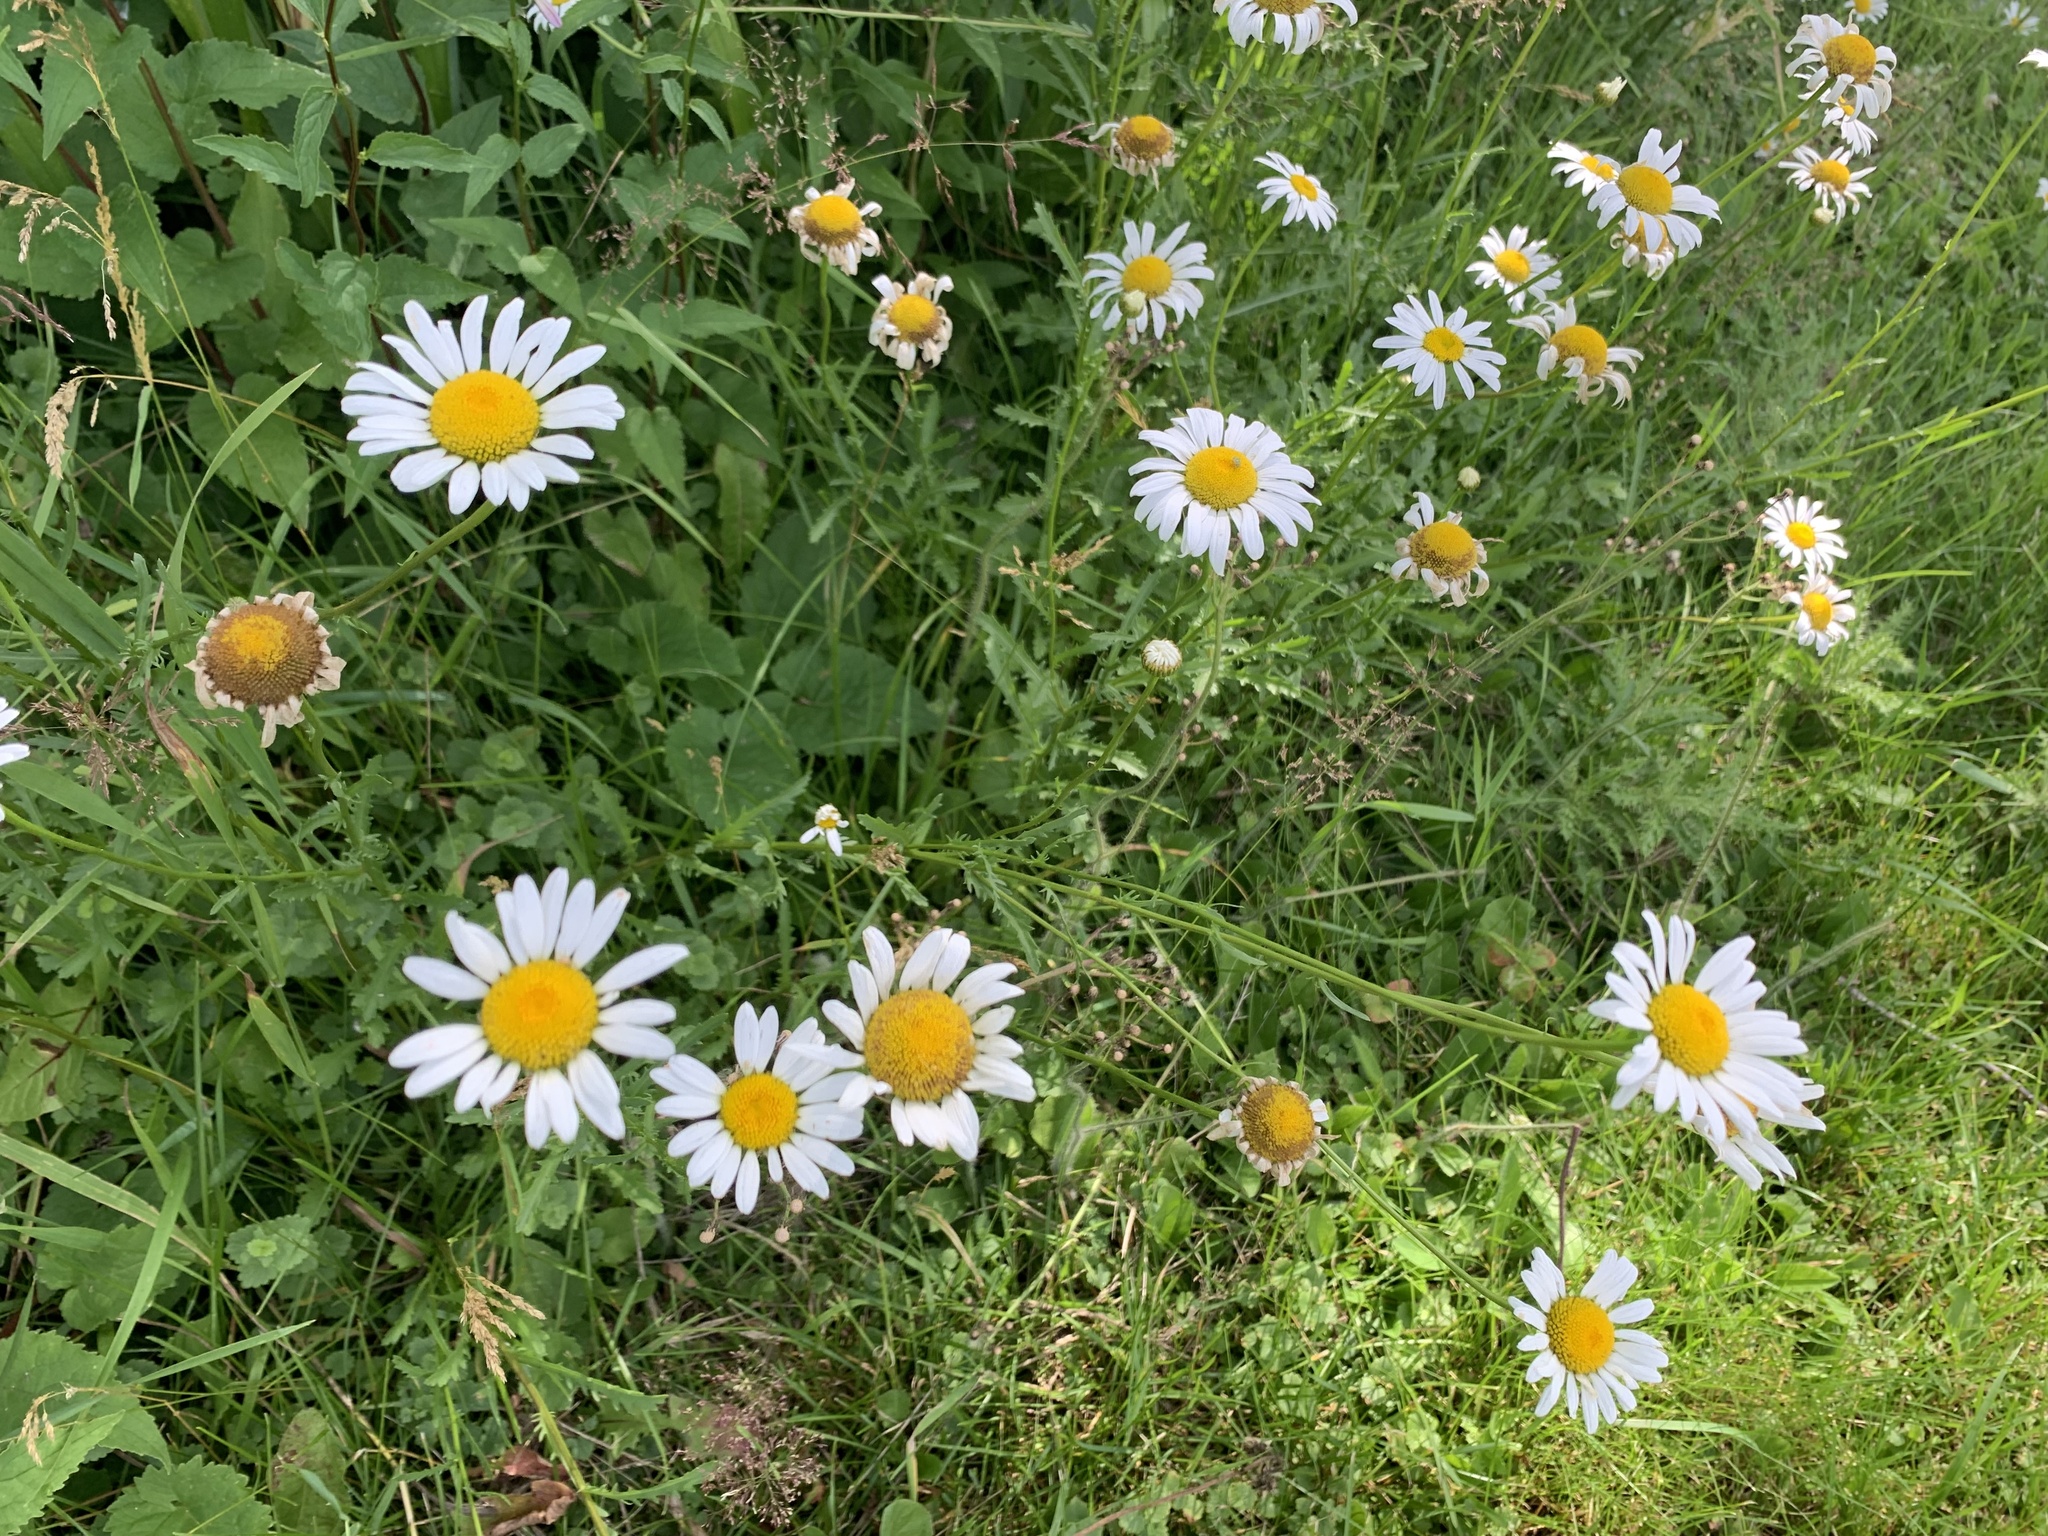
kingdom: Plantae
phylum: Tracheophyta
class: Magnoliopsida
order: Asterales
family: Asteraceae
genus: Leucanthemum
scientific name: Leucanthemum vulgare
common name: Oxeye daisy
